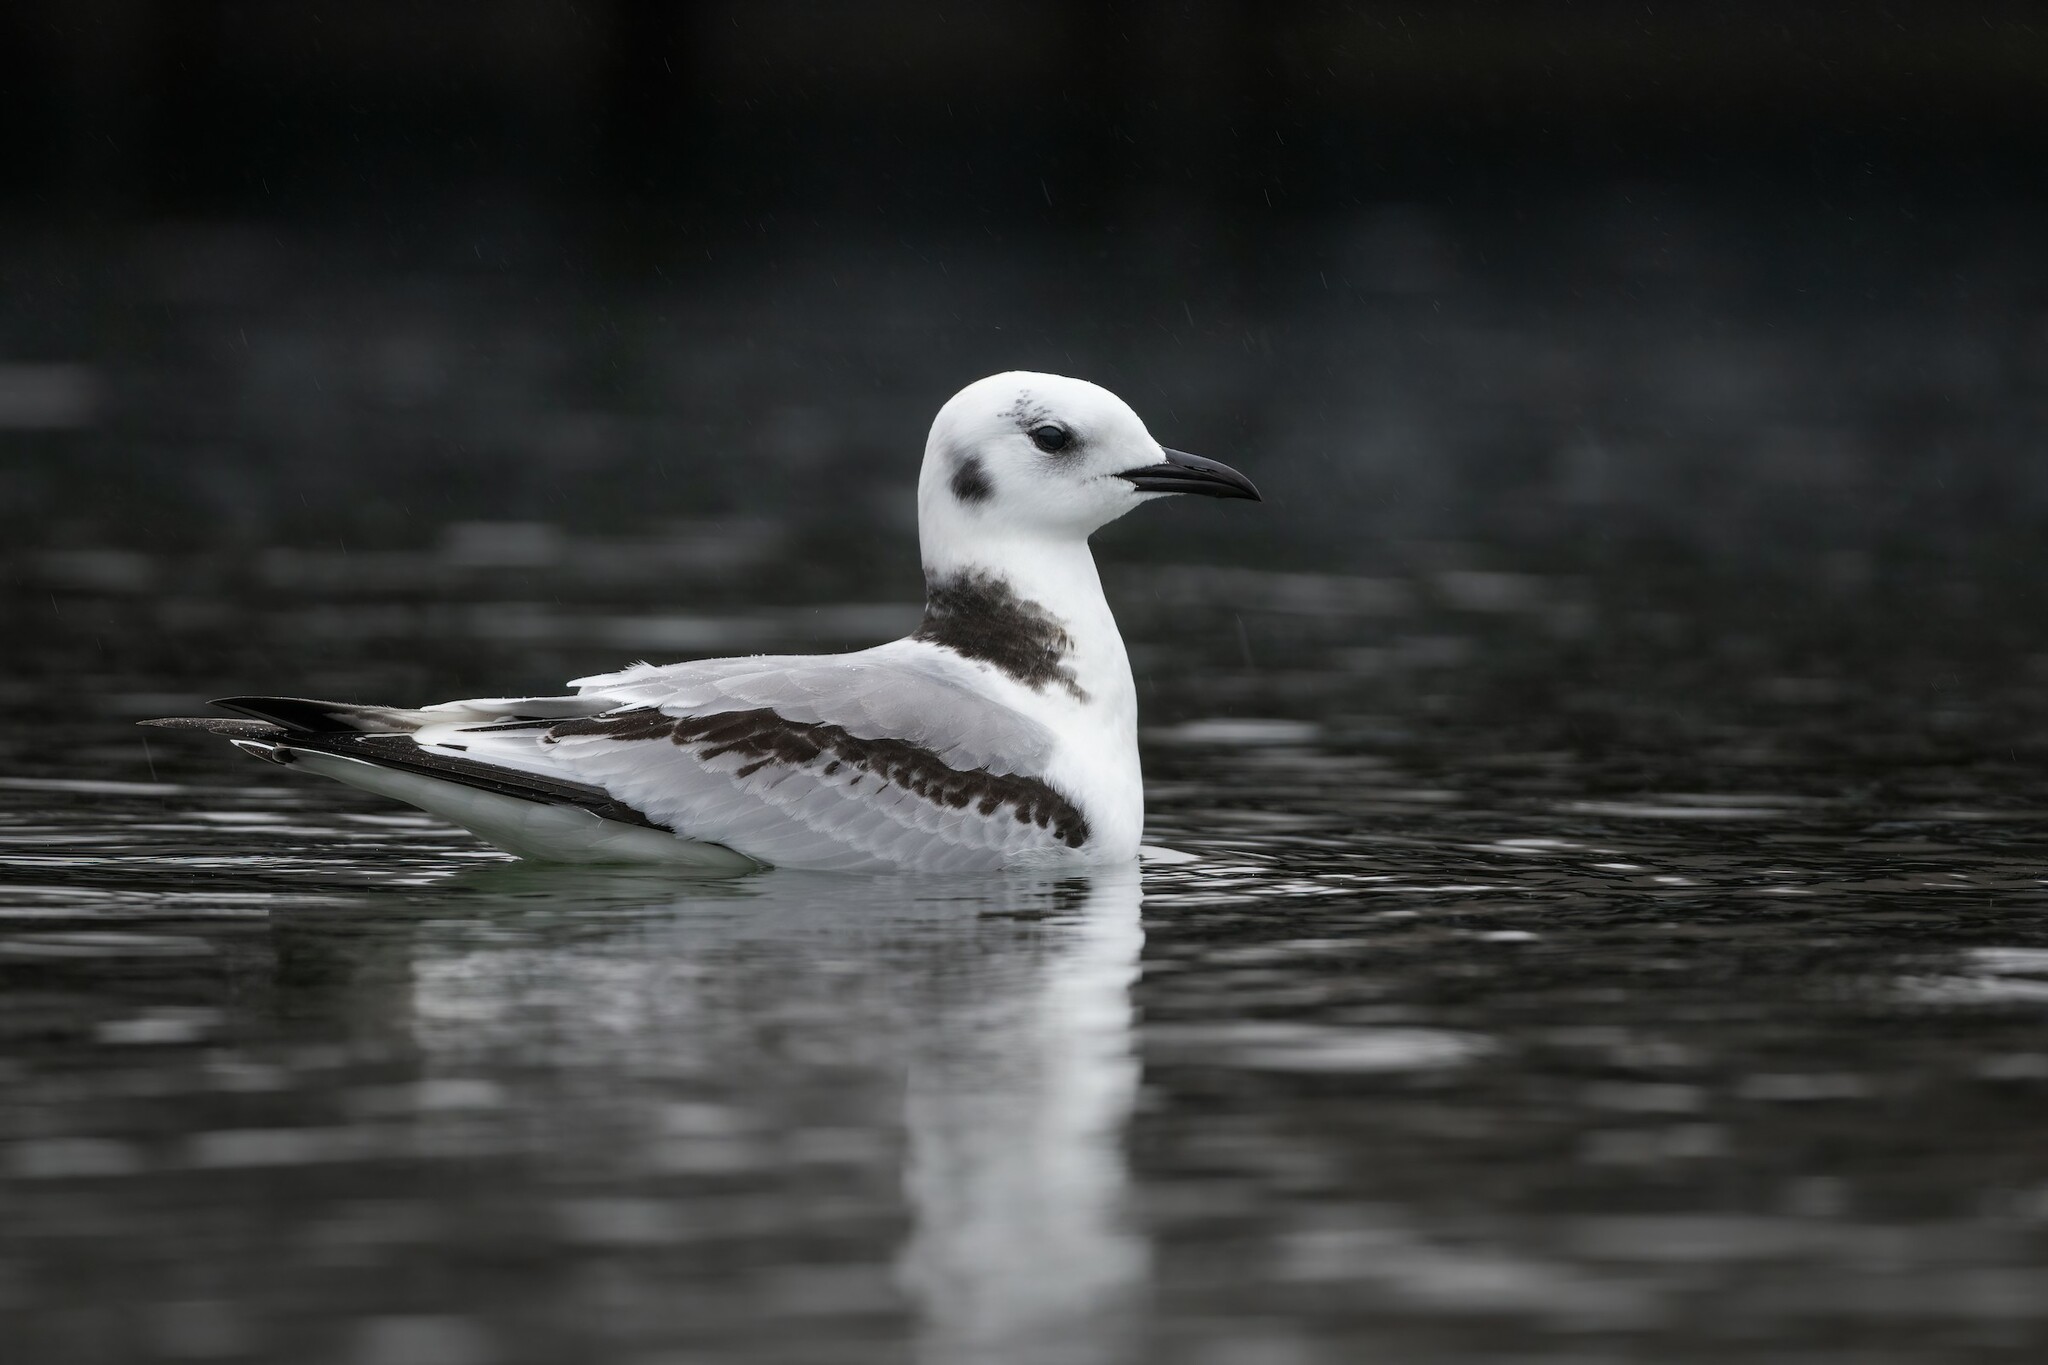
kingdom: Animalia
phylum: Chordata
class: Aves
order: Charadriiformes
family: Laridae
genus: Rissa
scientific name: Rissa tridactyla
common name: Black-legged kittiwake
